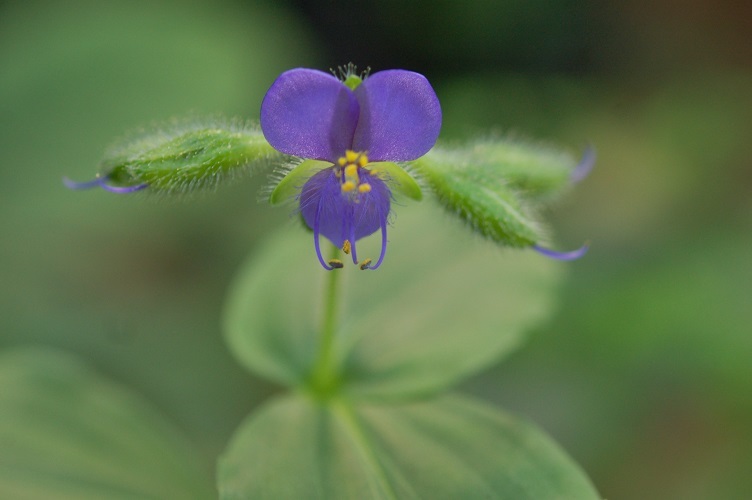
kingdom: Plantae
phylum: Tracheophyta
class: Liliopsida
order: Commelinales
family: Commelinaceae
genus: Tinantia
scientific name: Tinantia erecta
